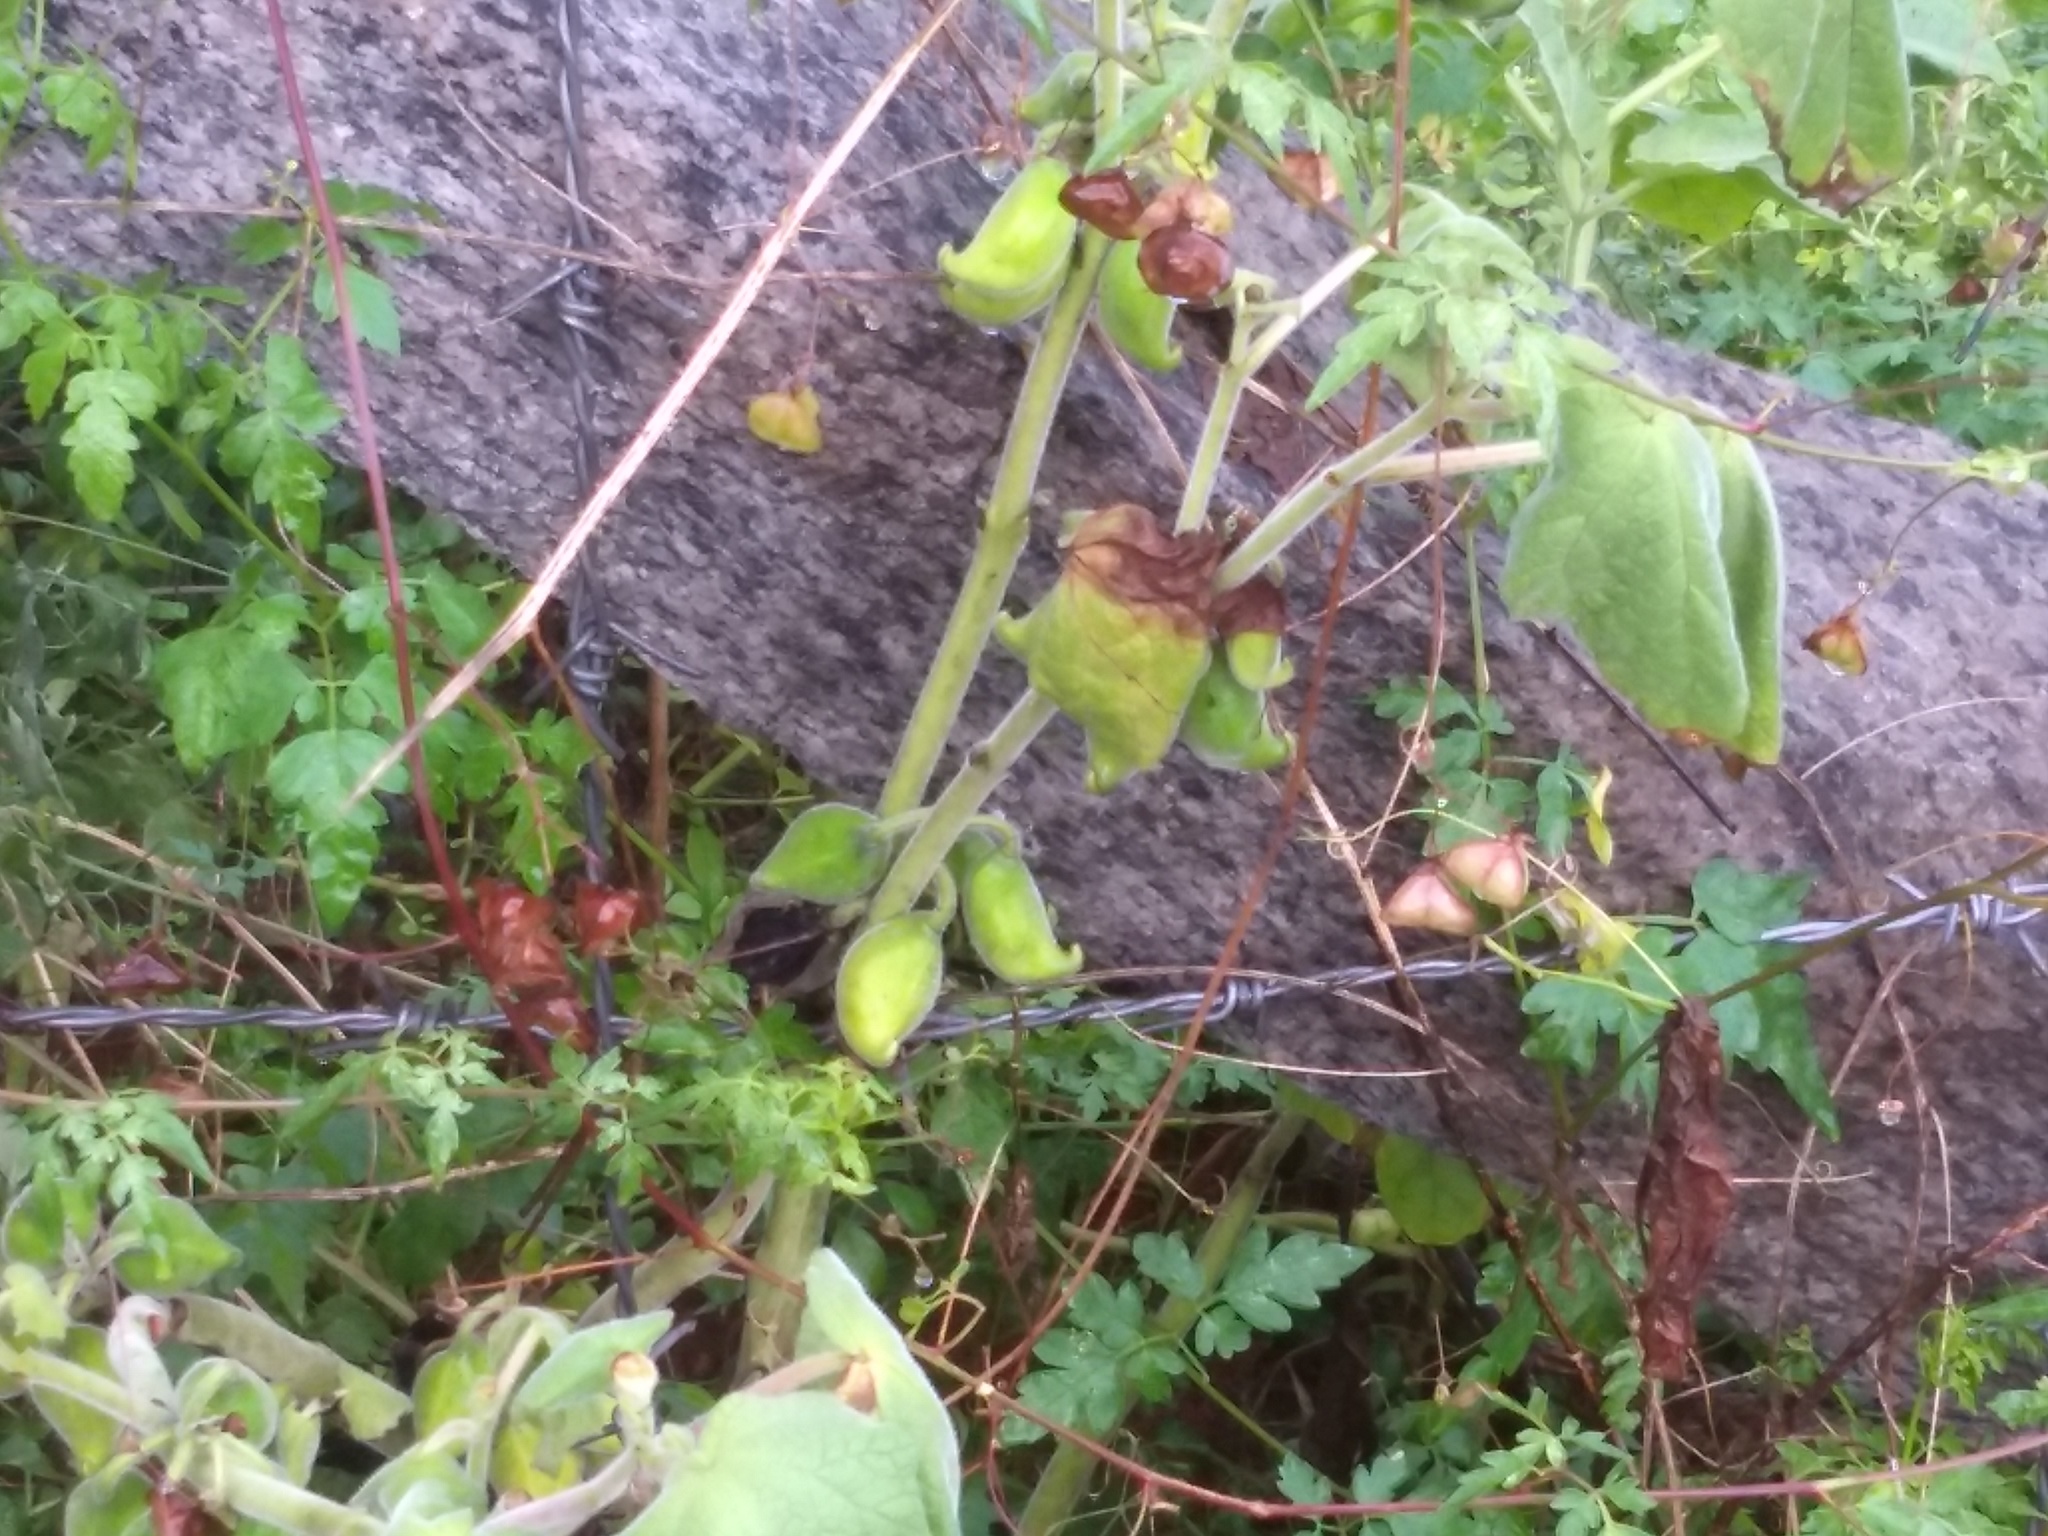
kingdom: Plantae
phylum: Tracheophyta
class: Magnoliopsida
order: Lamiales
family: Martyniaceae
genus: Martynia
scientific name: Martynia annua
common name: Tiger's-claw
